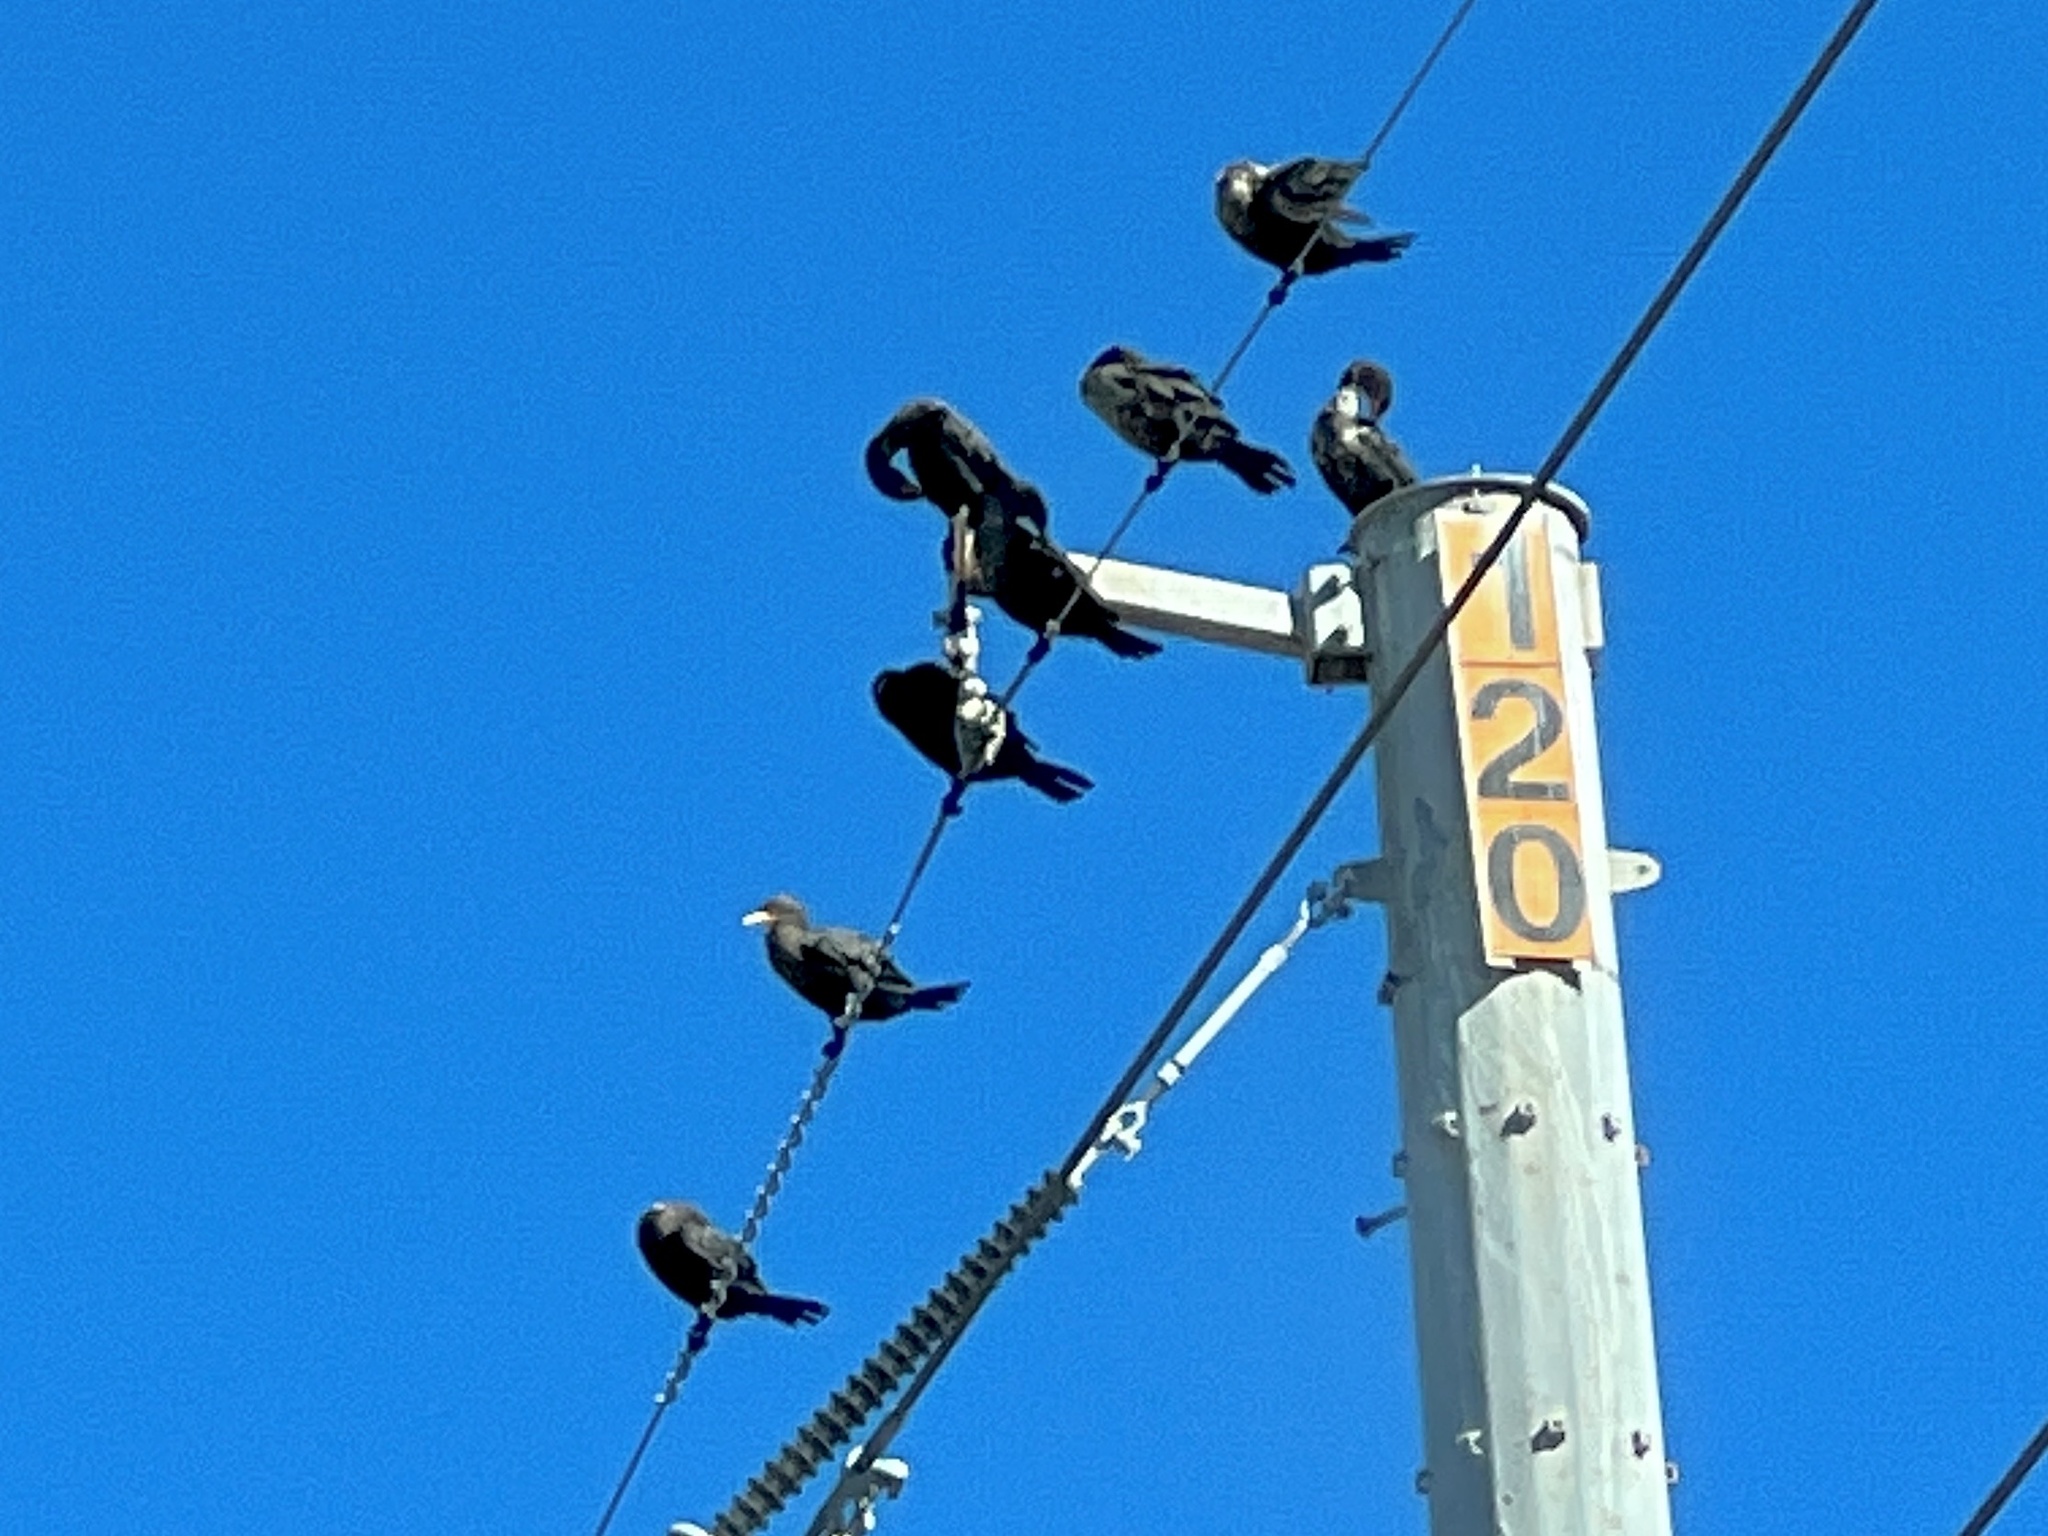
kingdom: Animalia
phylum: Chordata
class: Aves
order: Suliformes
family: Phalacrocoracidae
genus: Phalacrocorax
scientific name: Phalacrocorax auritus
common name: Double-crested cormorant
